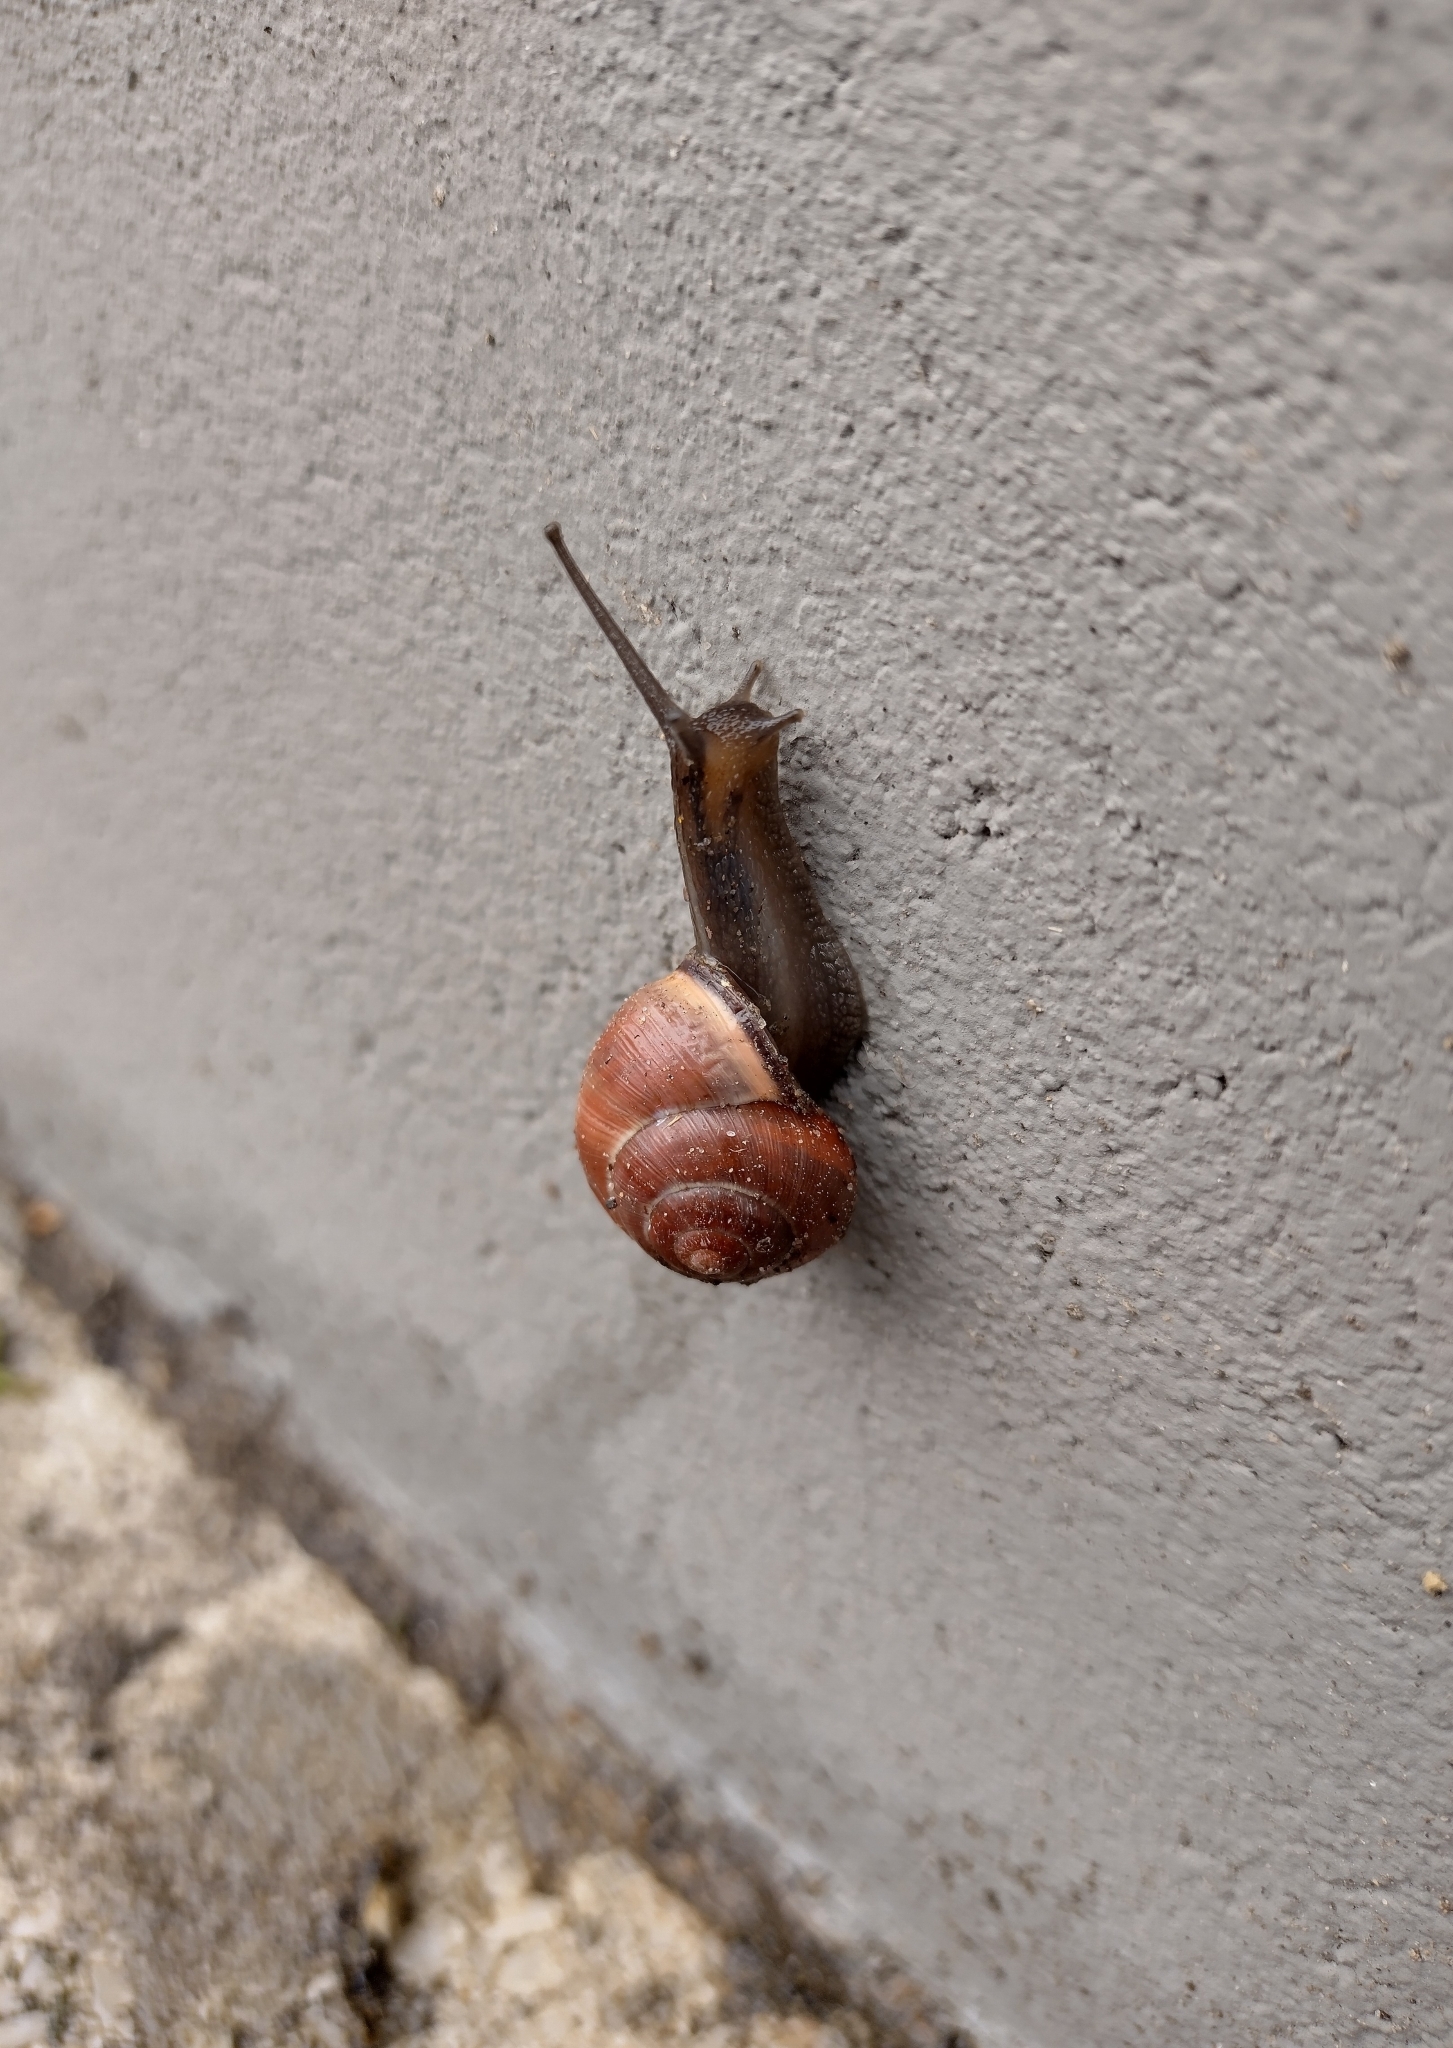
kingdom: Animalia
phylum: Mollusca
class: Gastropoda
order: Stylommatophora
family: Helicidae
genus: Cepaea
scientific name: Cepaea nemoralis
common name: Grovesnail
